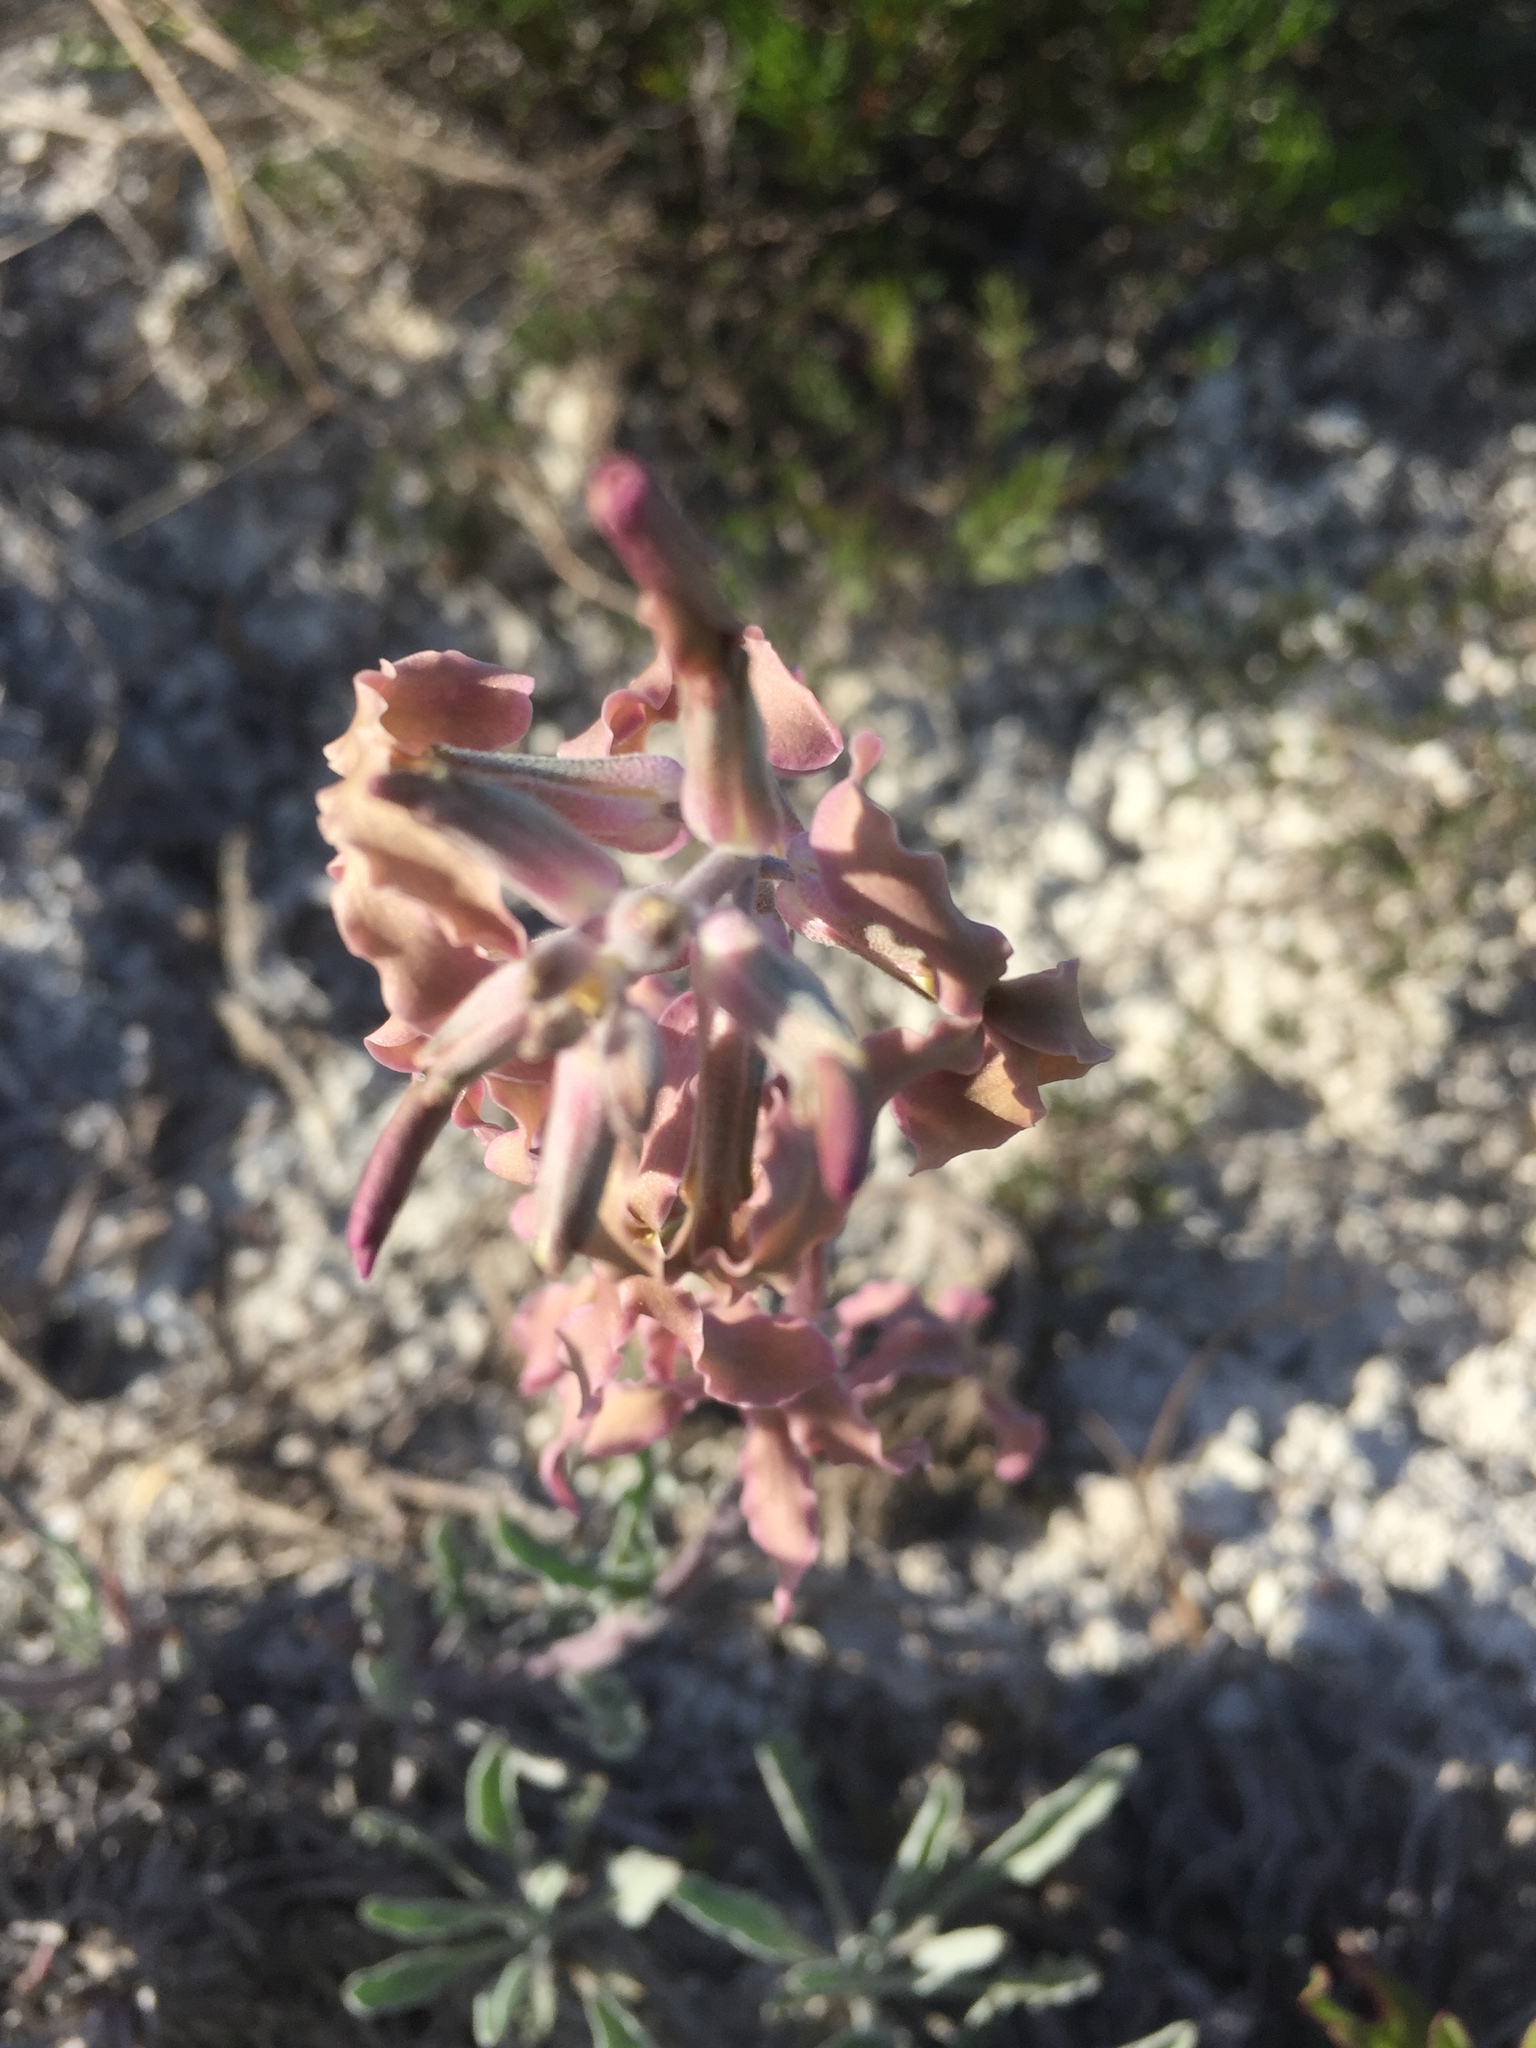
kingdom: Plantae
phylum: Tracheophyta
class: Magnoliopsida
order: Brassicales
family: Brassicaceae
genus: Matthiola
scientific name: Matthiola fragrans
